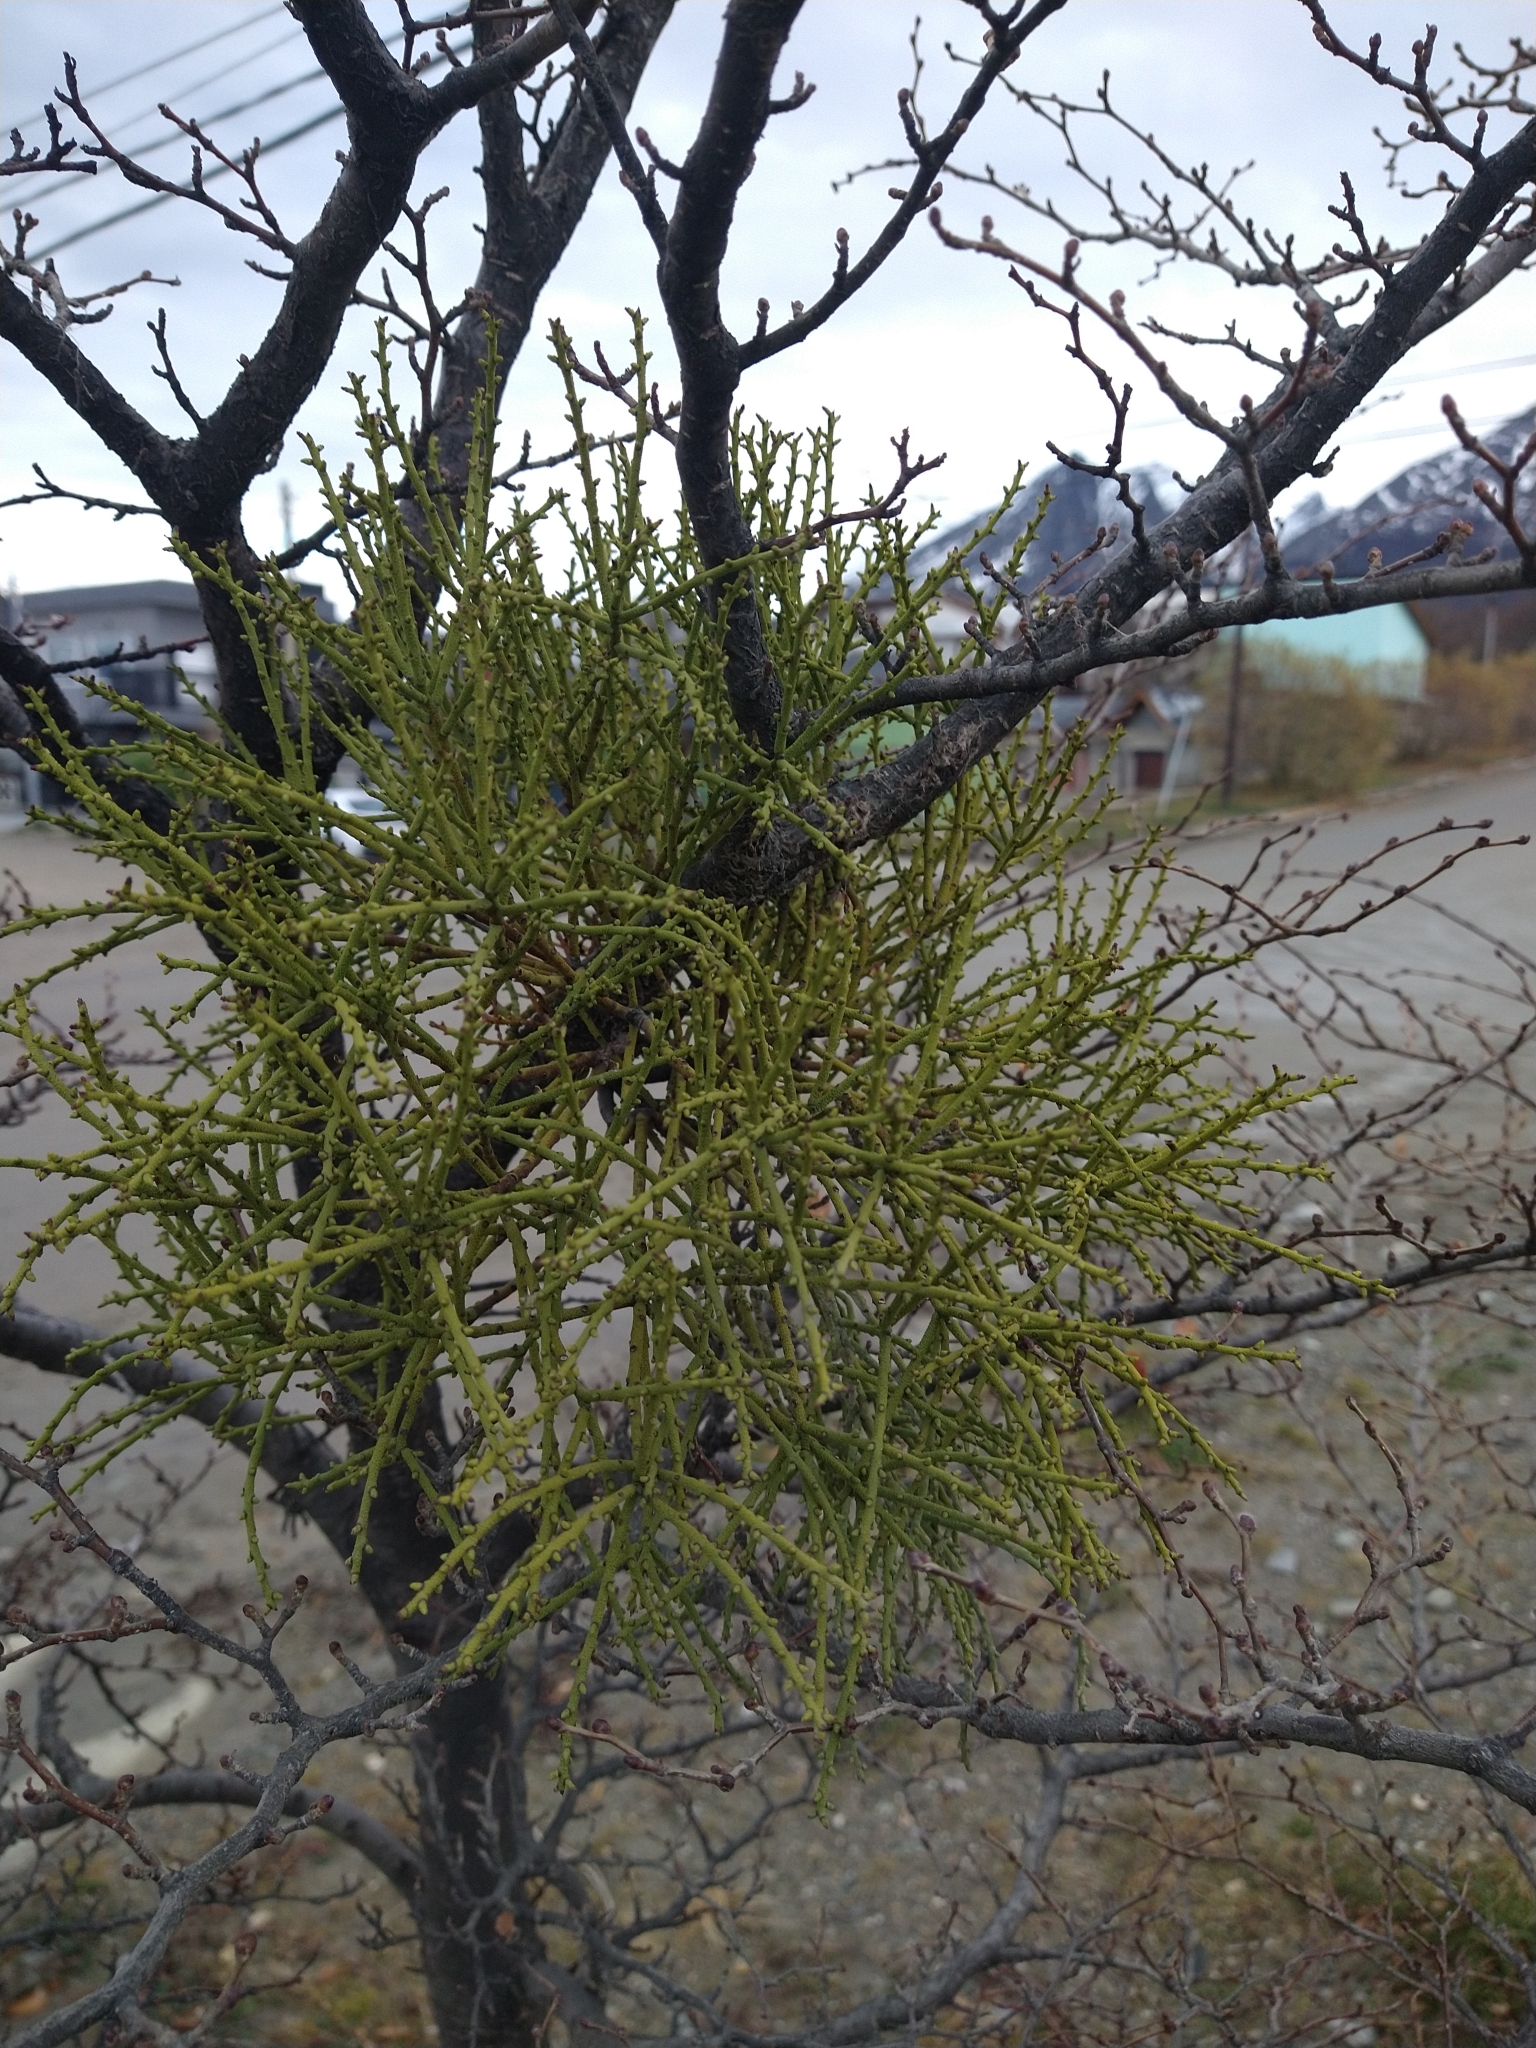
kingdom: Plantae
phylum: Tracheophyta
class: Magnoliopsida
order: Santalales
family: Misodendraceae
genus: Misodendrum
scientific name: Misodendrum punctulatum
